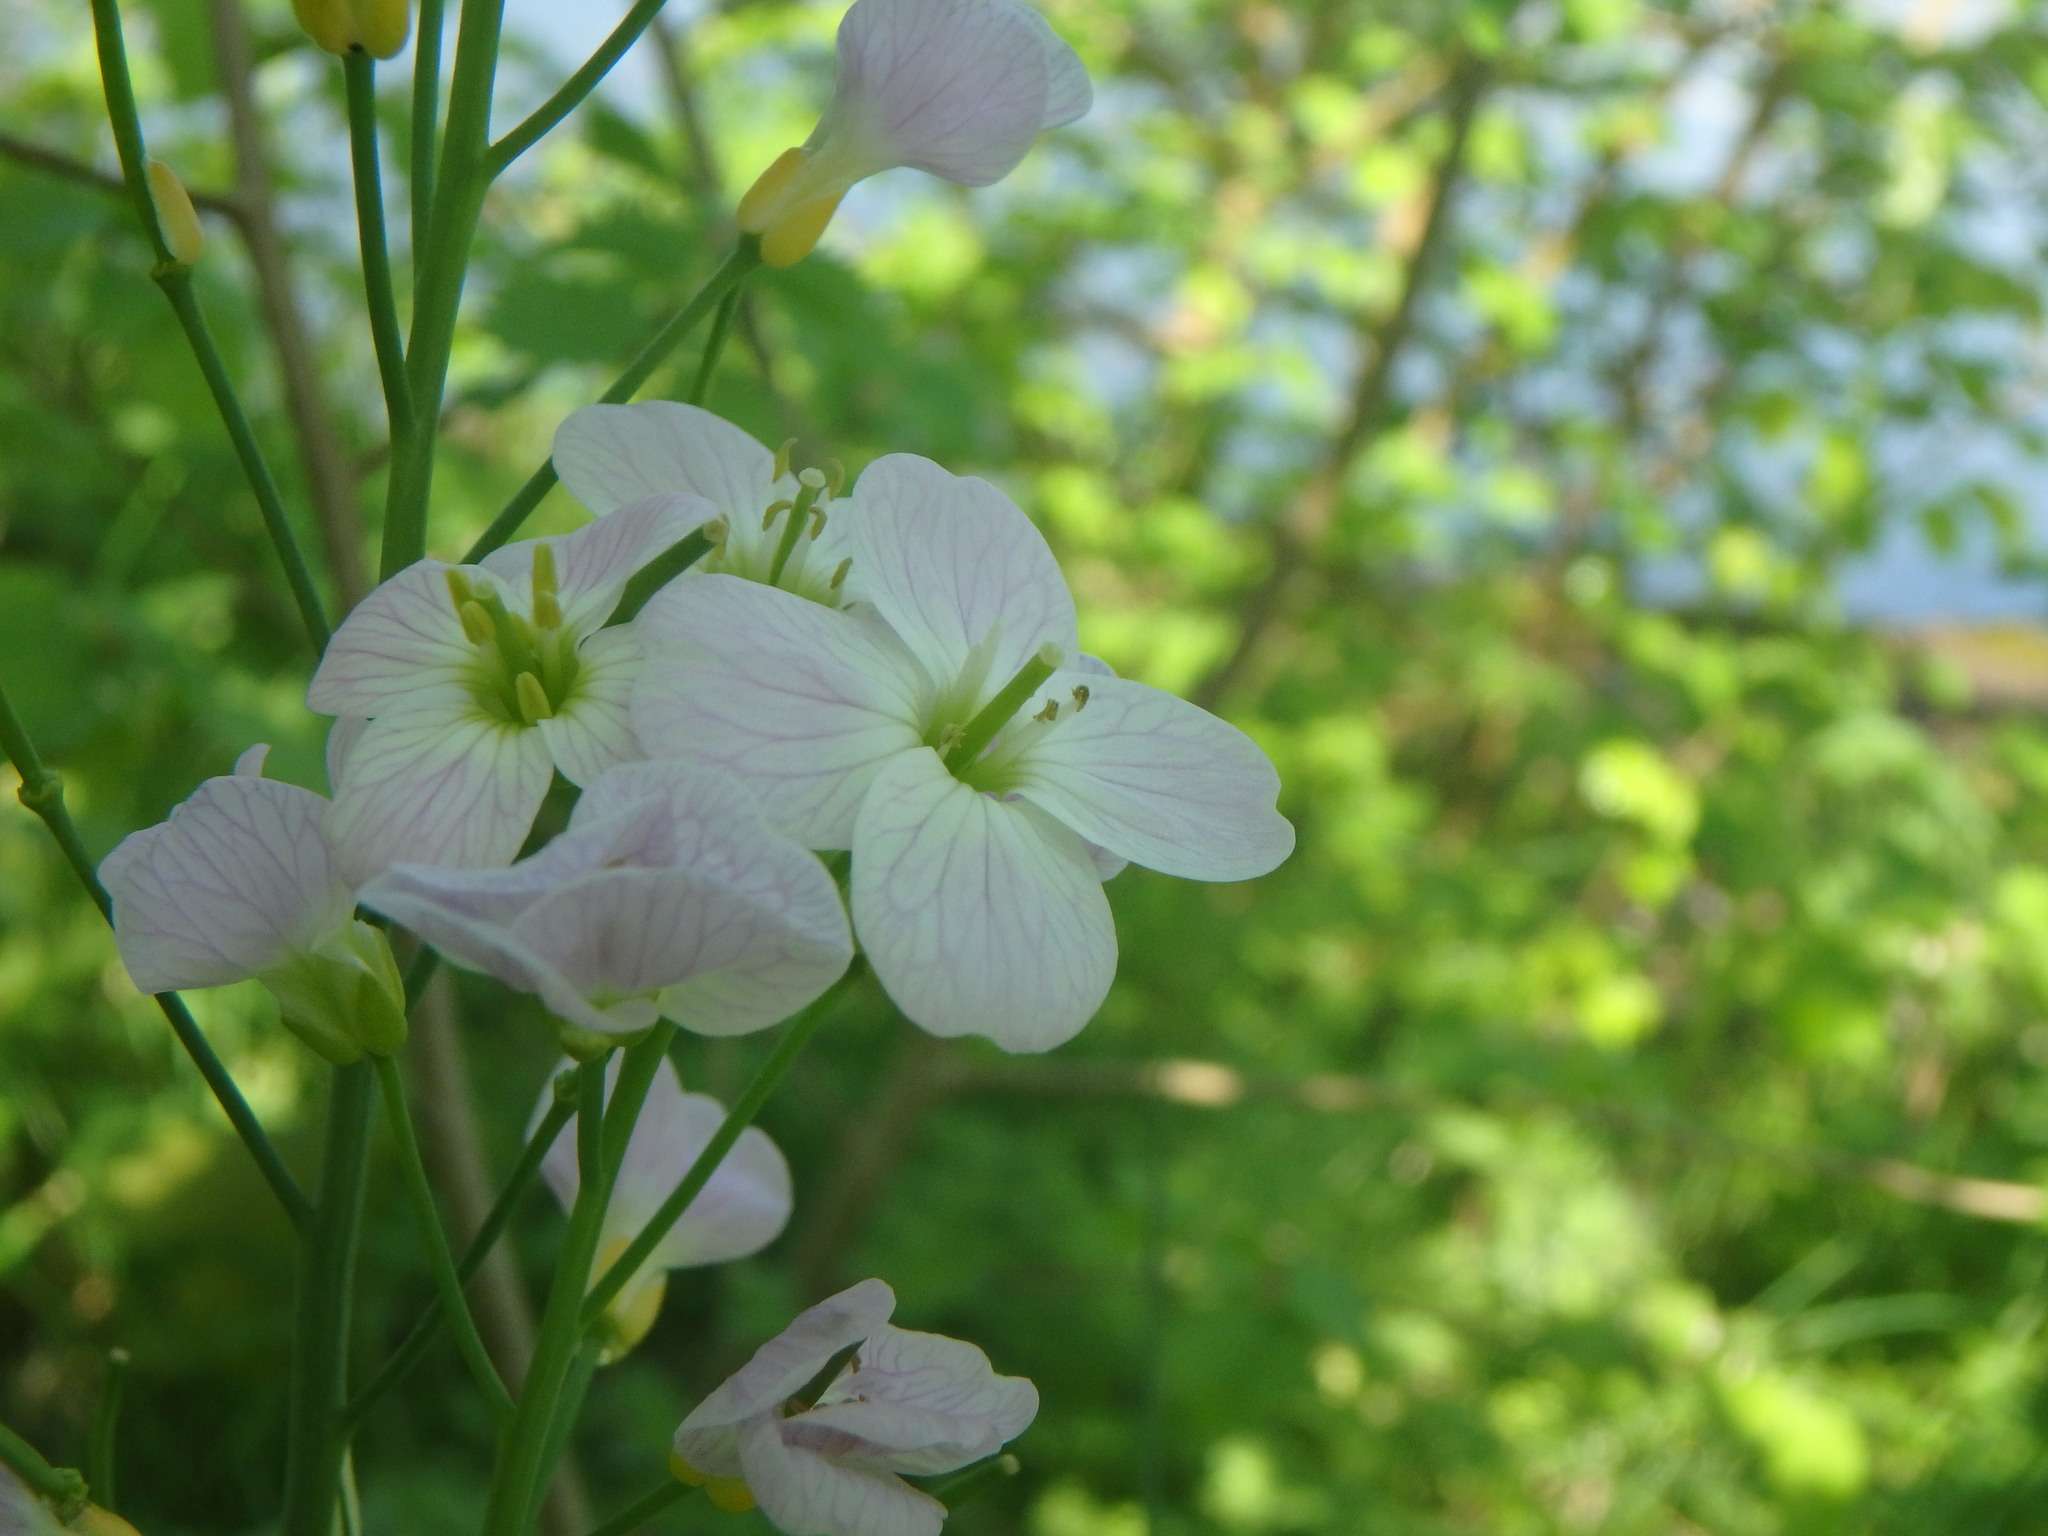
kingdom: Plantae
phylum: Tracheophyta
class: Magnoliopsida
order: Brassicales
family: Brassicaceae
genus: Cardamine
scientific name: Cardamine pratensis
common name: Cuckoo flower
